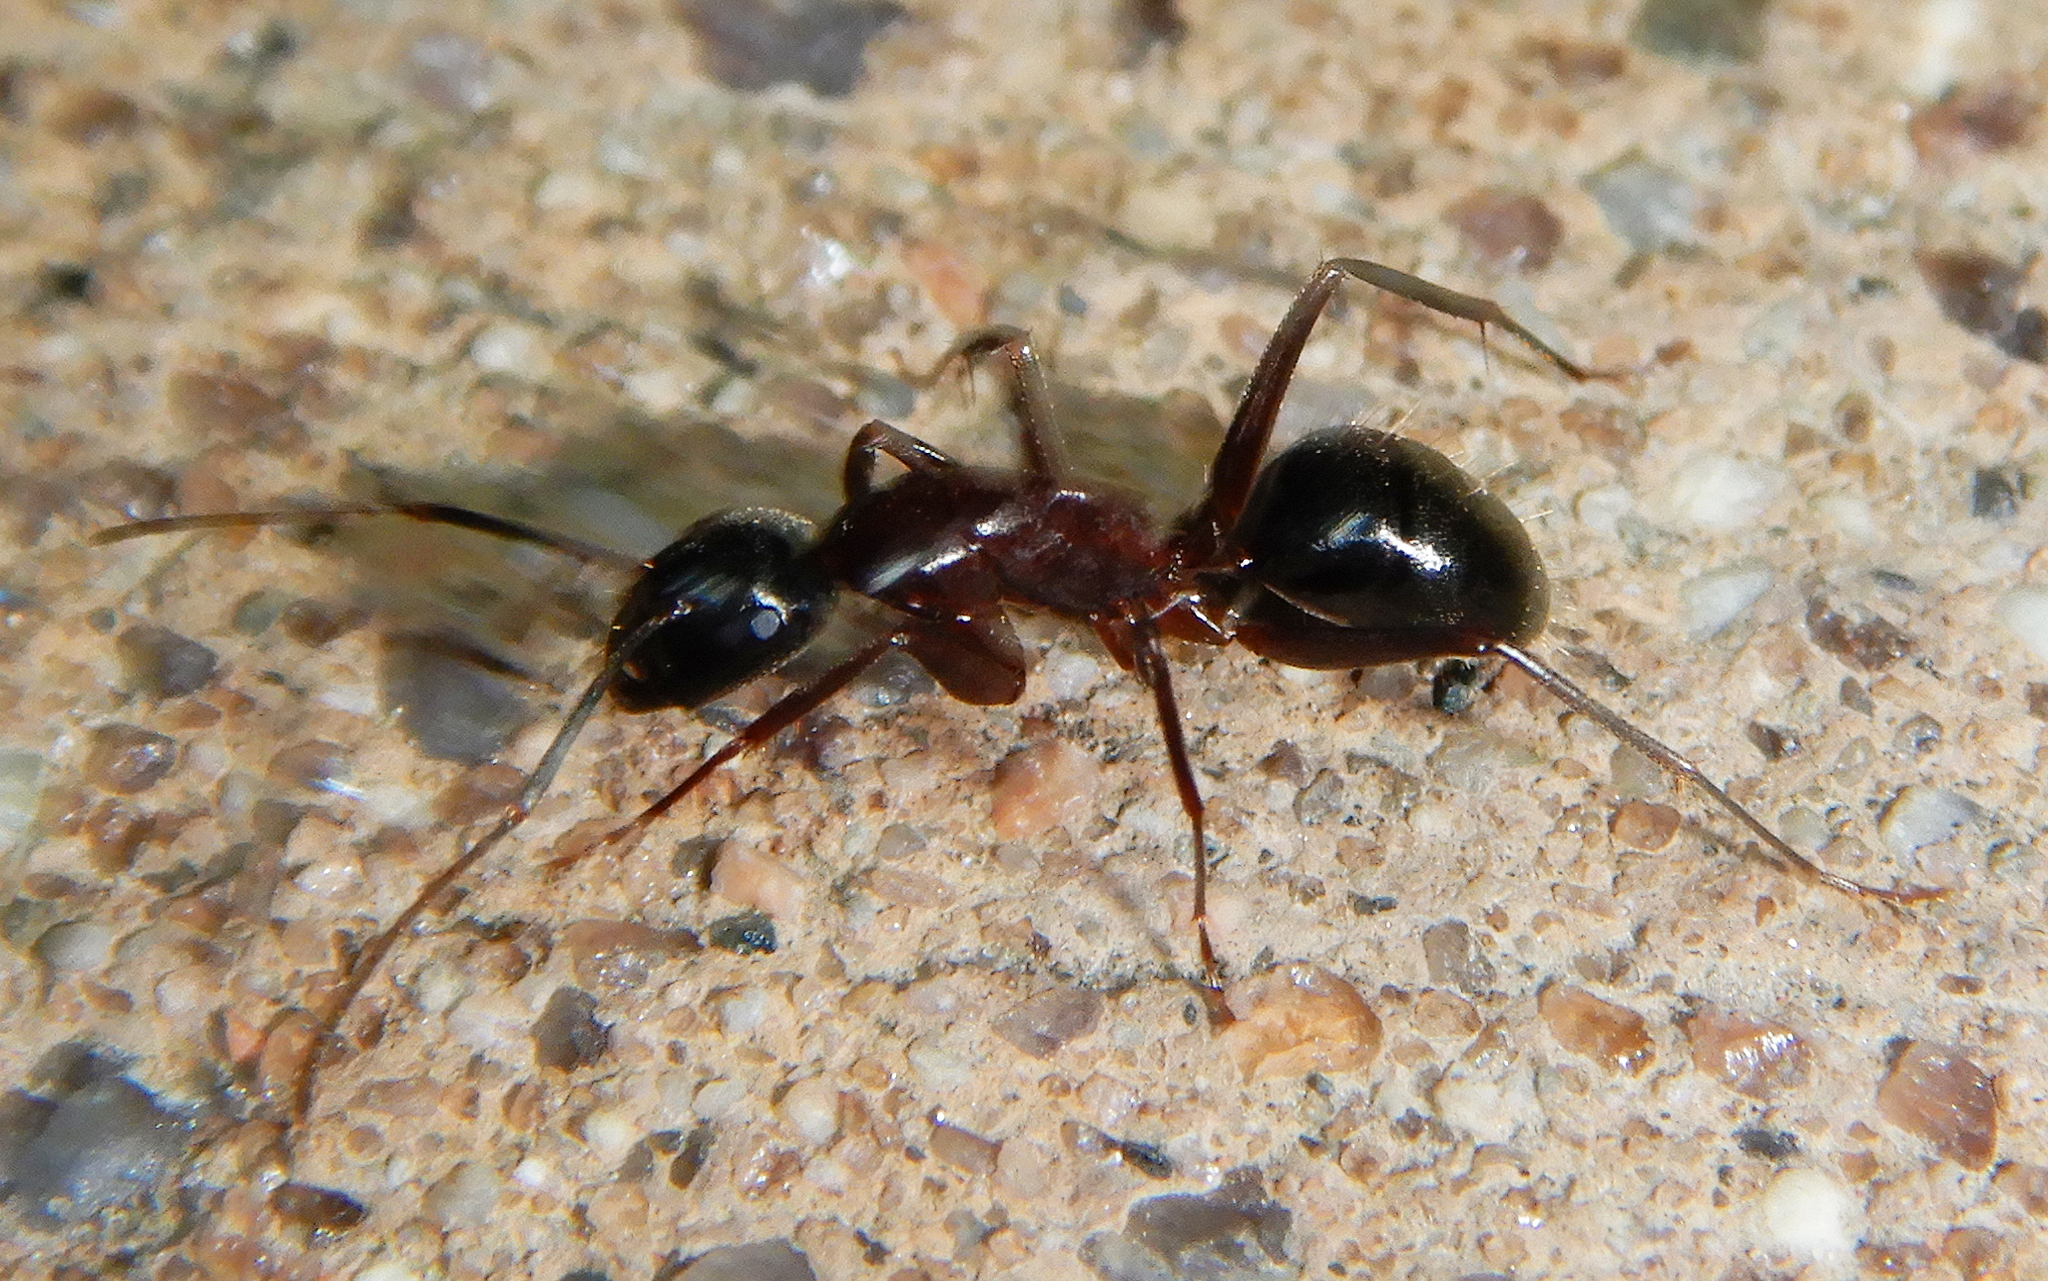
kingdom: Animalia
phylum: Arthropoda
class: Insecta
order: Hymenoptera
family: Formicidae
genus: Camponotus
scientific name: Camponotus vicinus
